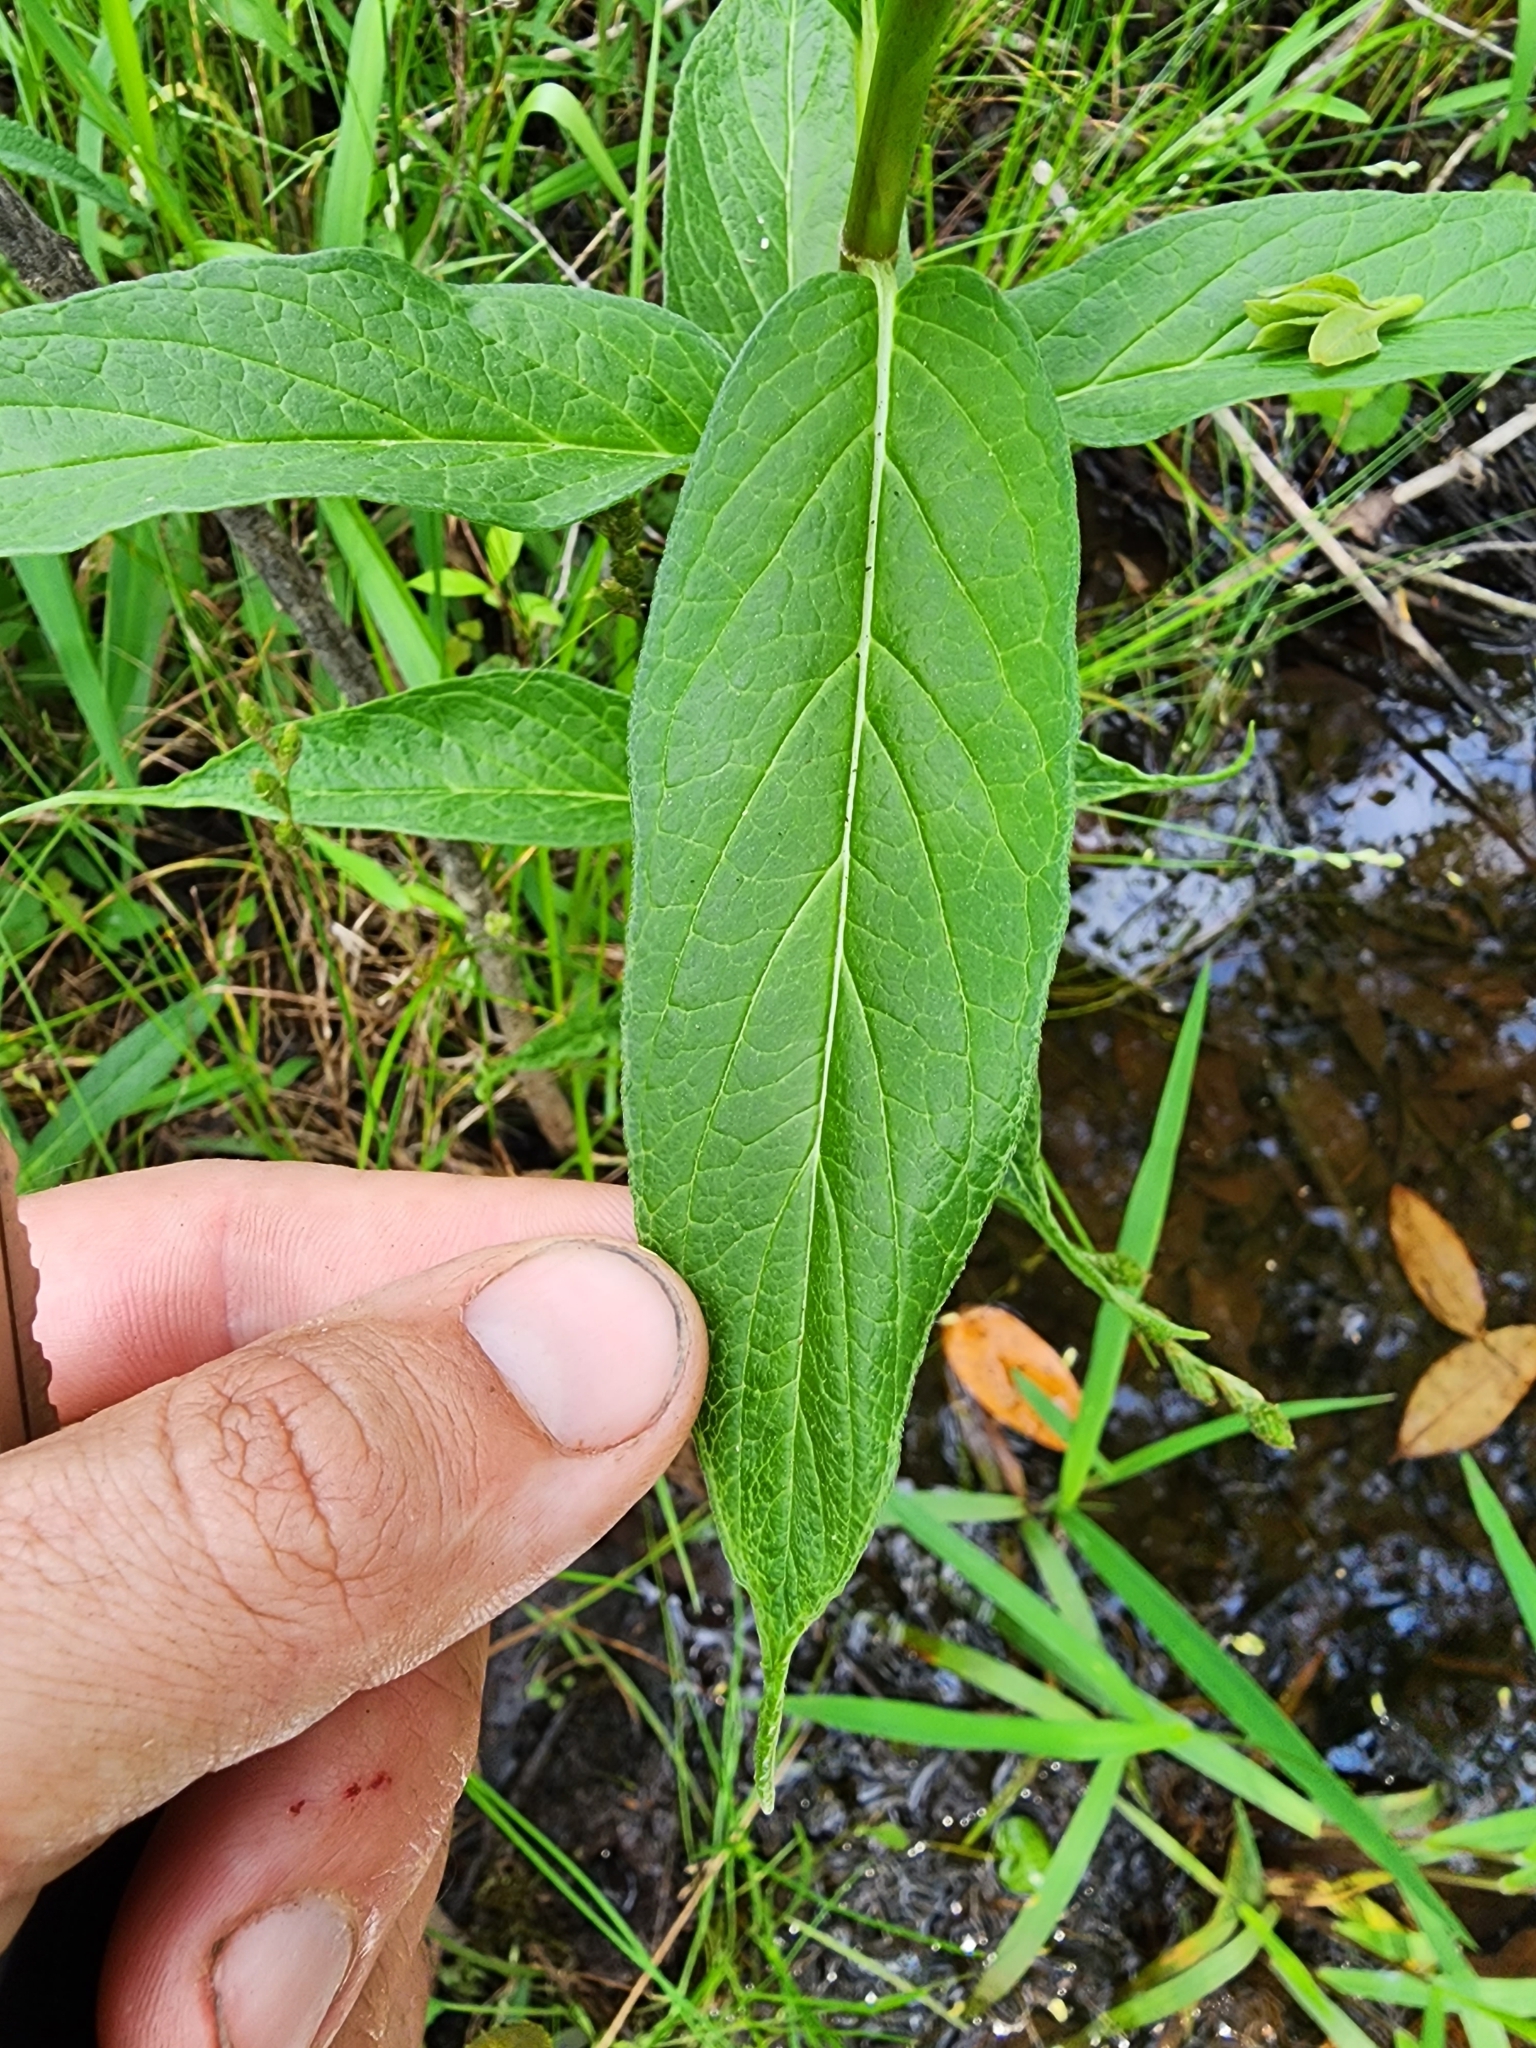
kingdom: Plantae
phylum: Tracheophyta
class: Magnoliopsida
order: Gentianales
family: Apocynaceae
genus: Asclepias
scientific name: Asclepias incarnata
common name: Swamp milkweed
